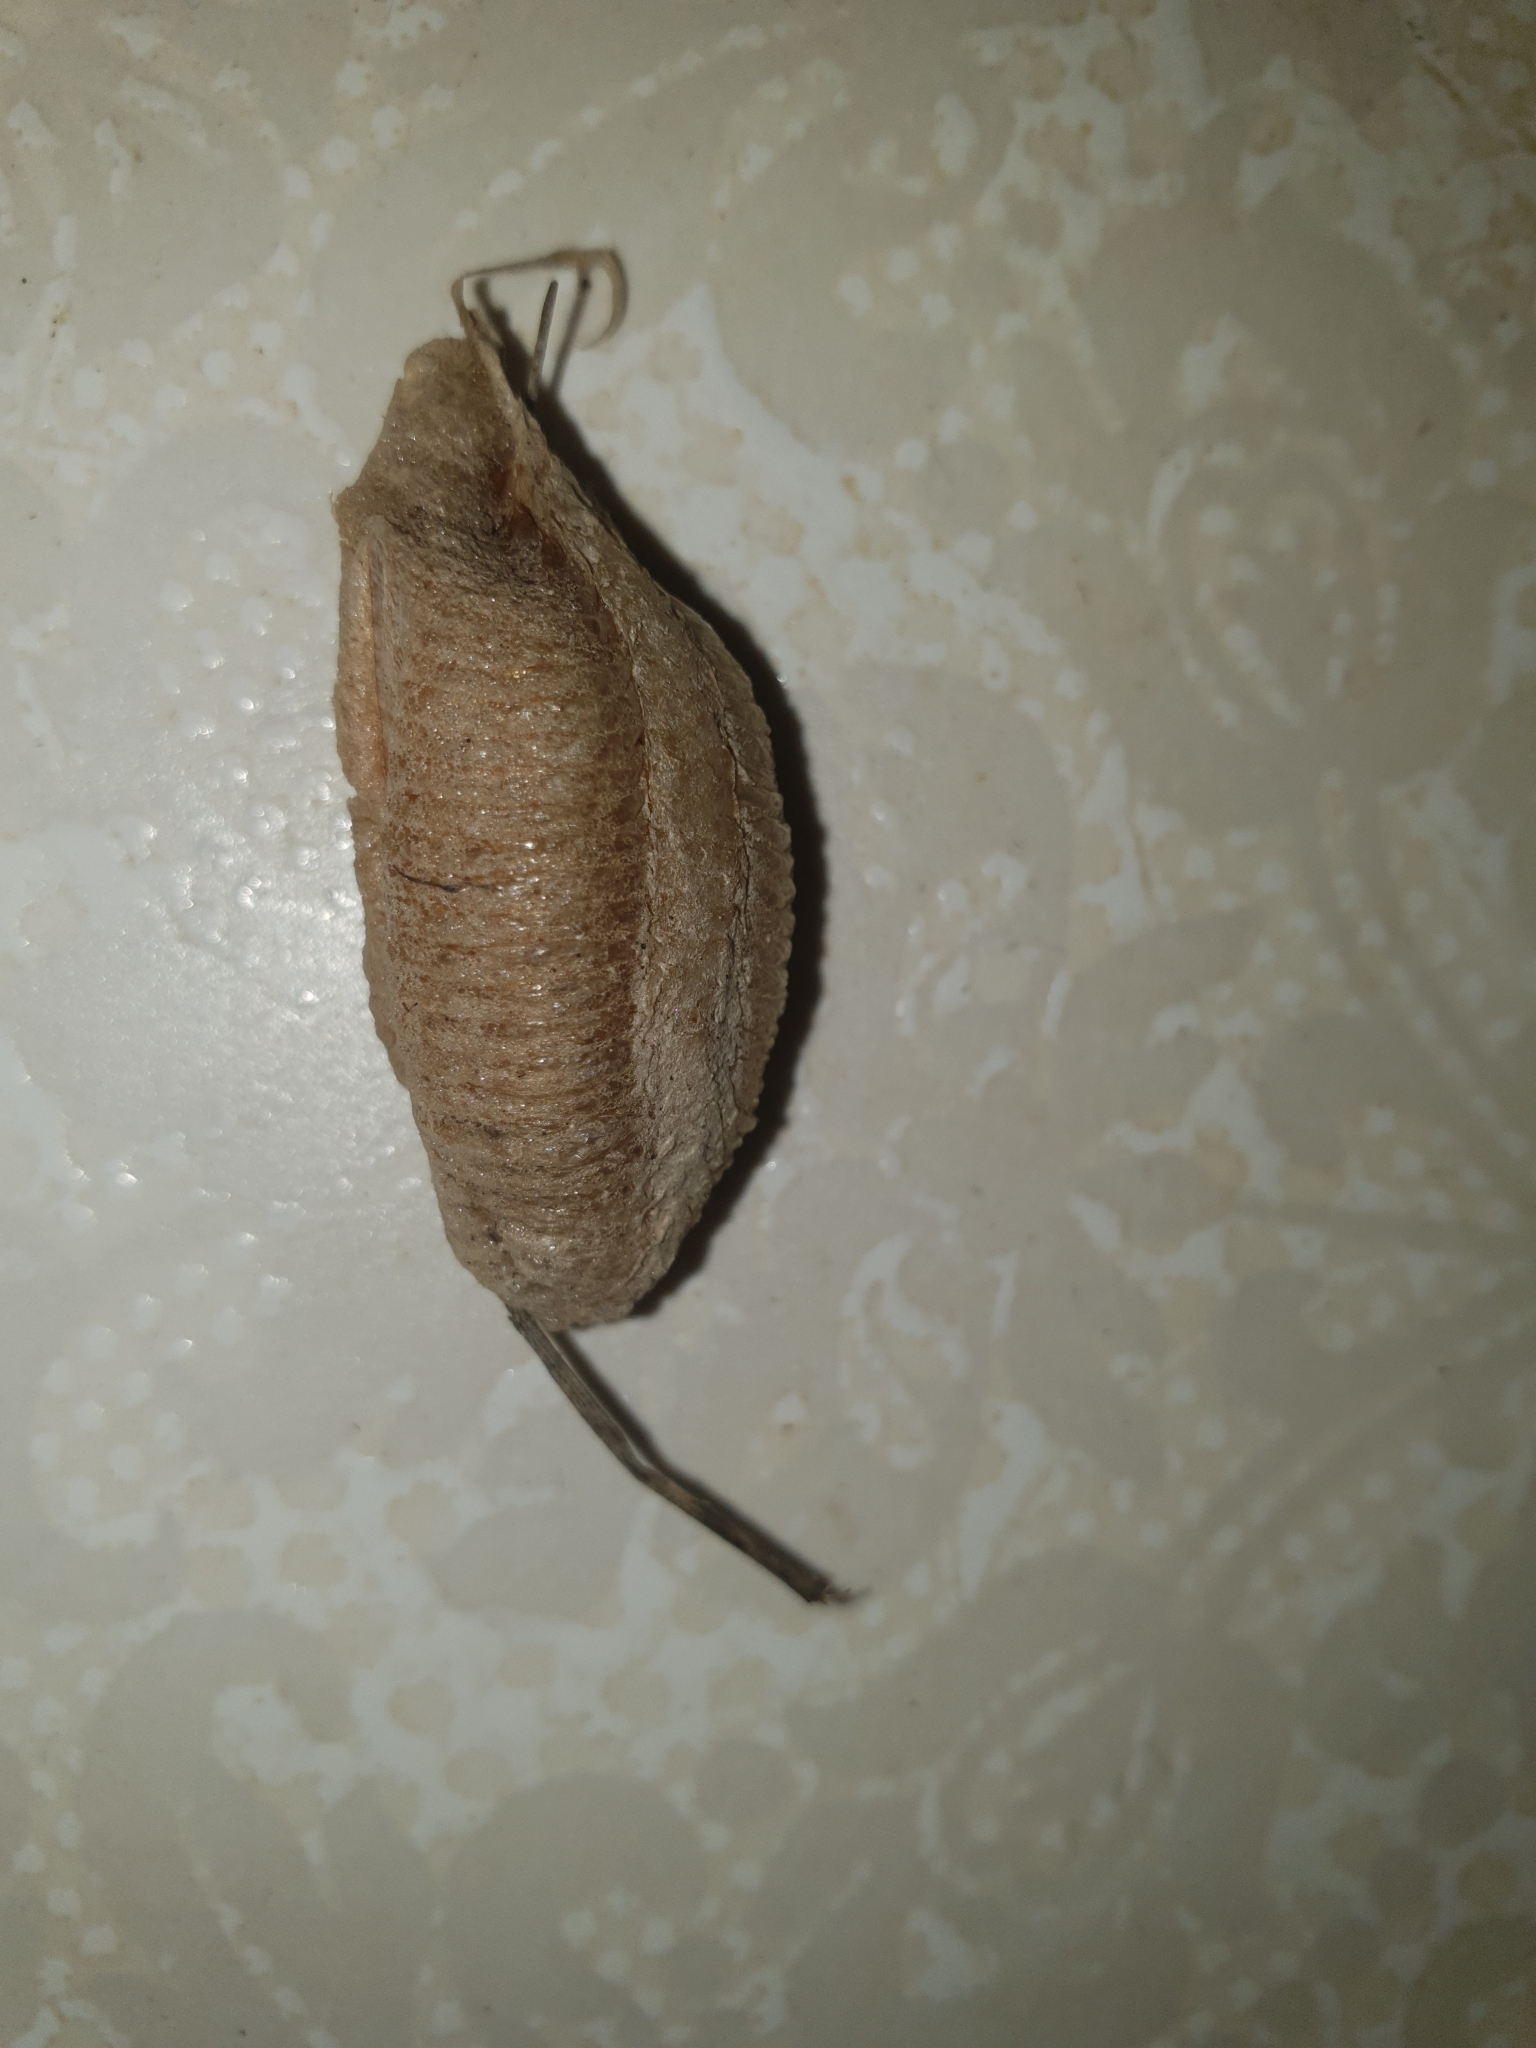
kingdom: Animalia
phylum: Arthropoda
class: Insecta
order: Mantodea
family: Mantidae
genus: Mantis
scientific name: Mantis religiosa
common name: Praying mantis
